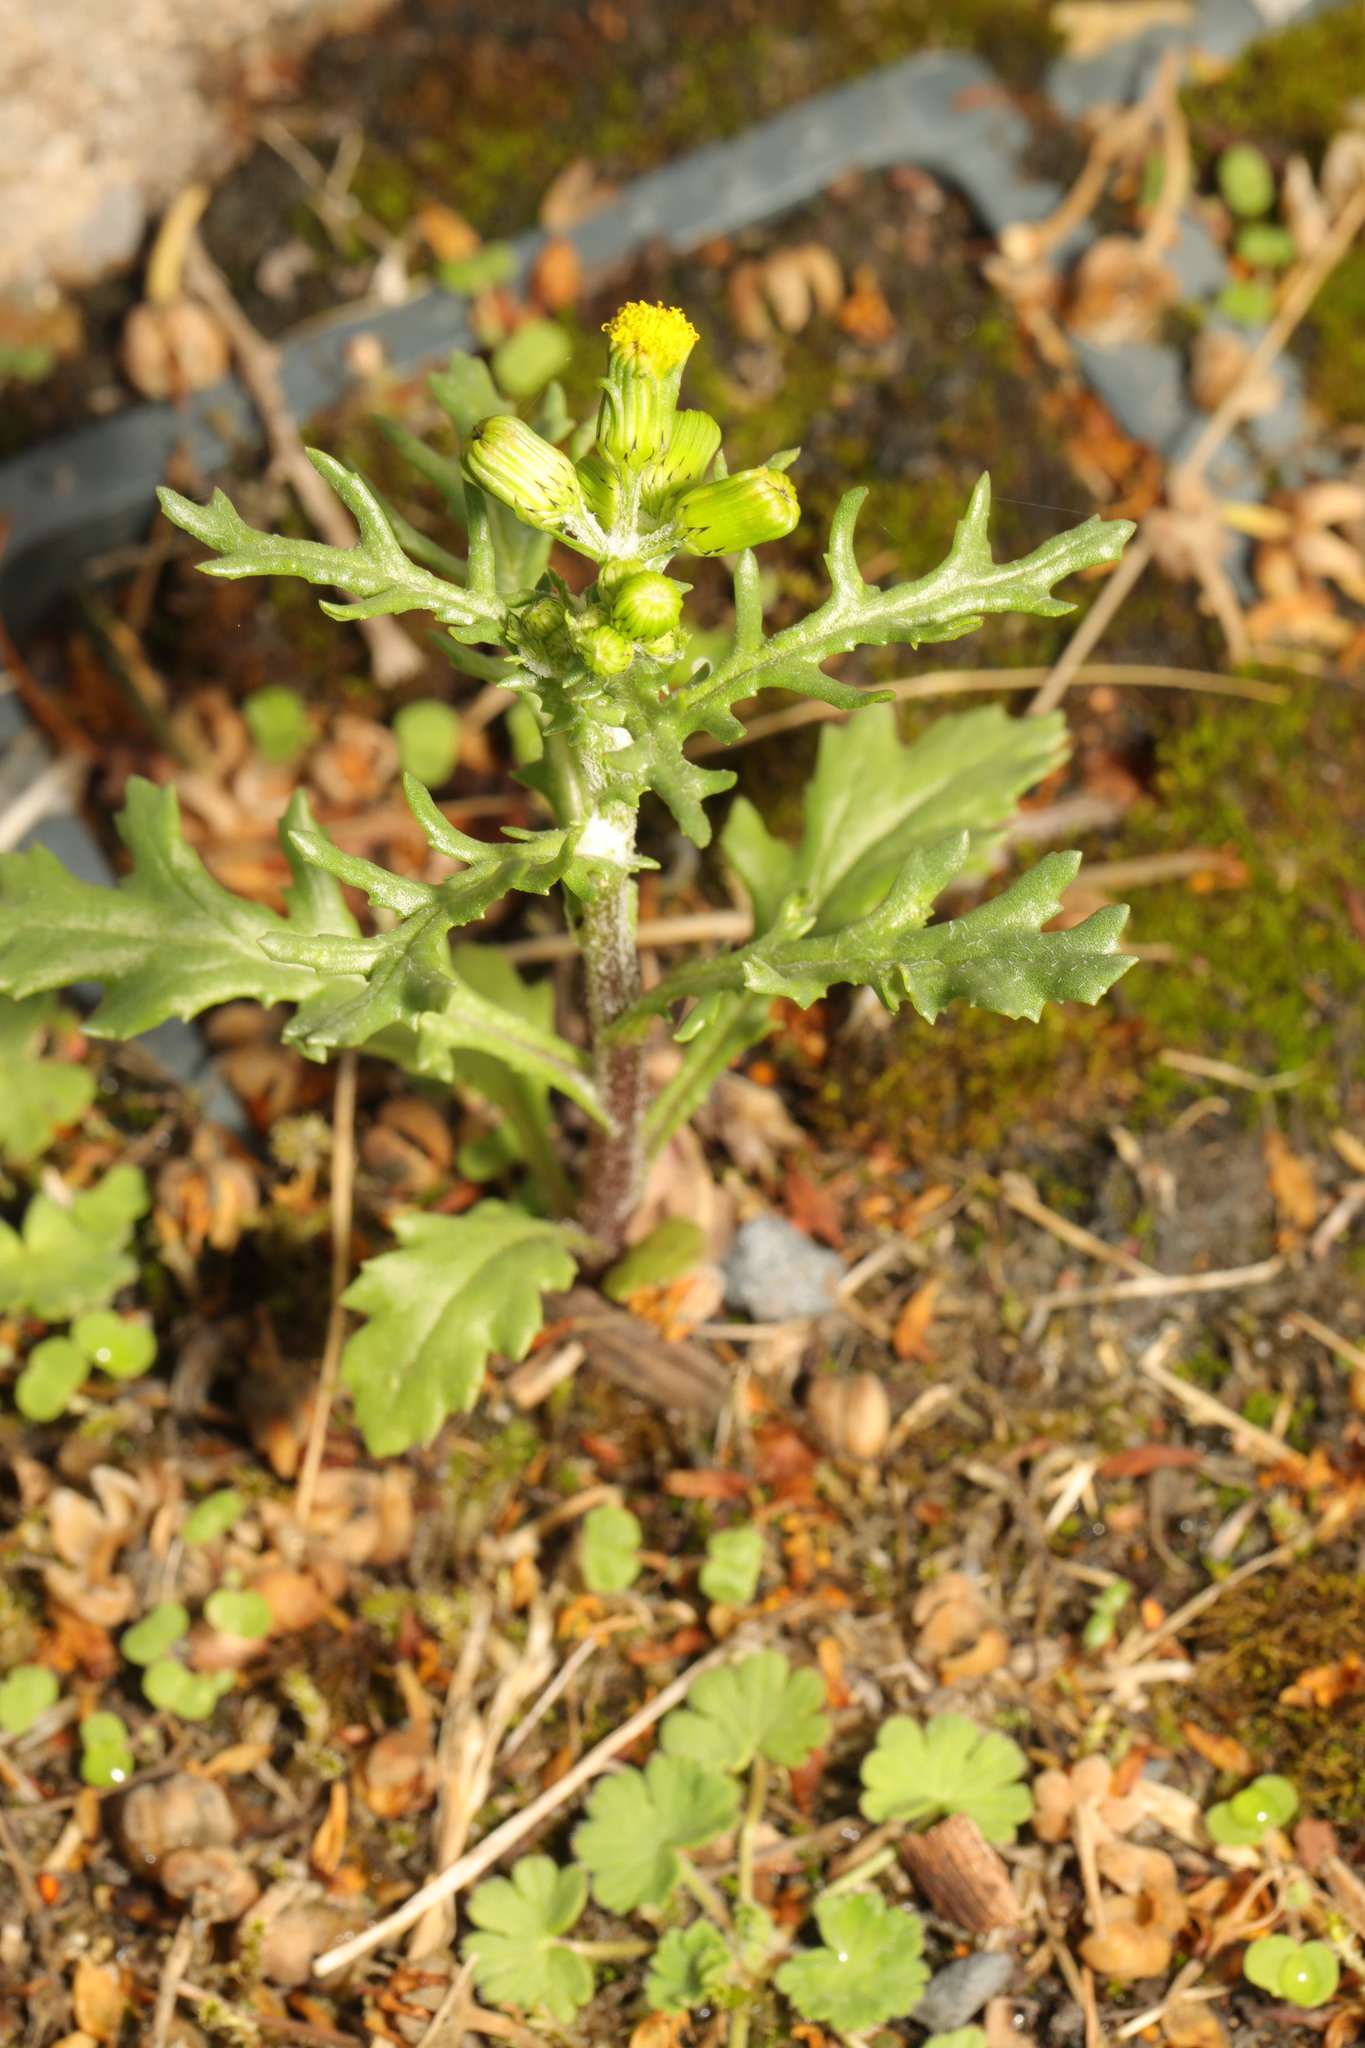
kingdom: Plantae
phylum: Tracheophyta
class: Magnoliopsida
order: Asterales
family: Asteraceae
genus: Senecio
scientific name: Senecio vulgaris
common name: Old-man-in-the-spring
